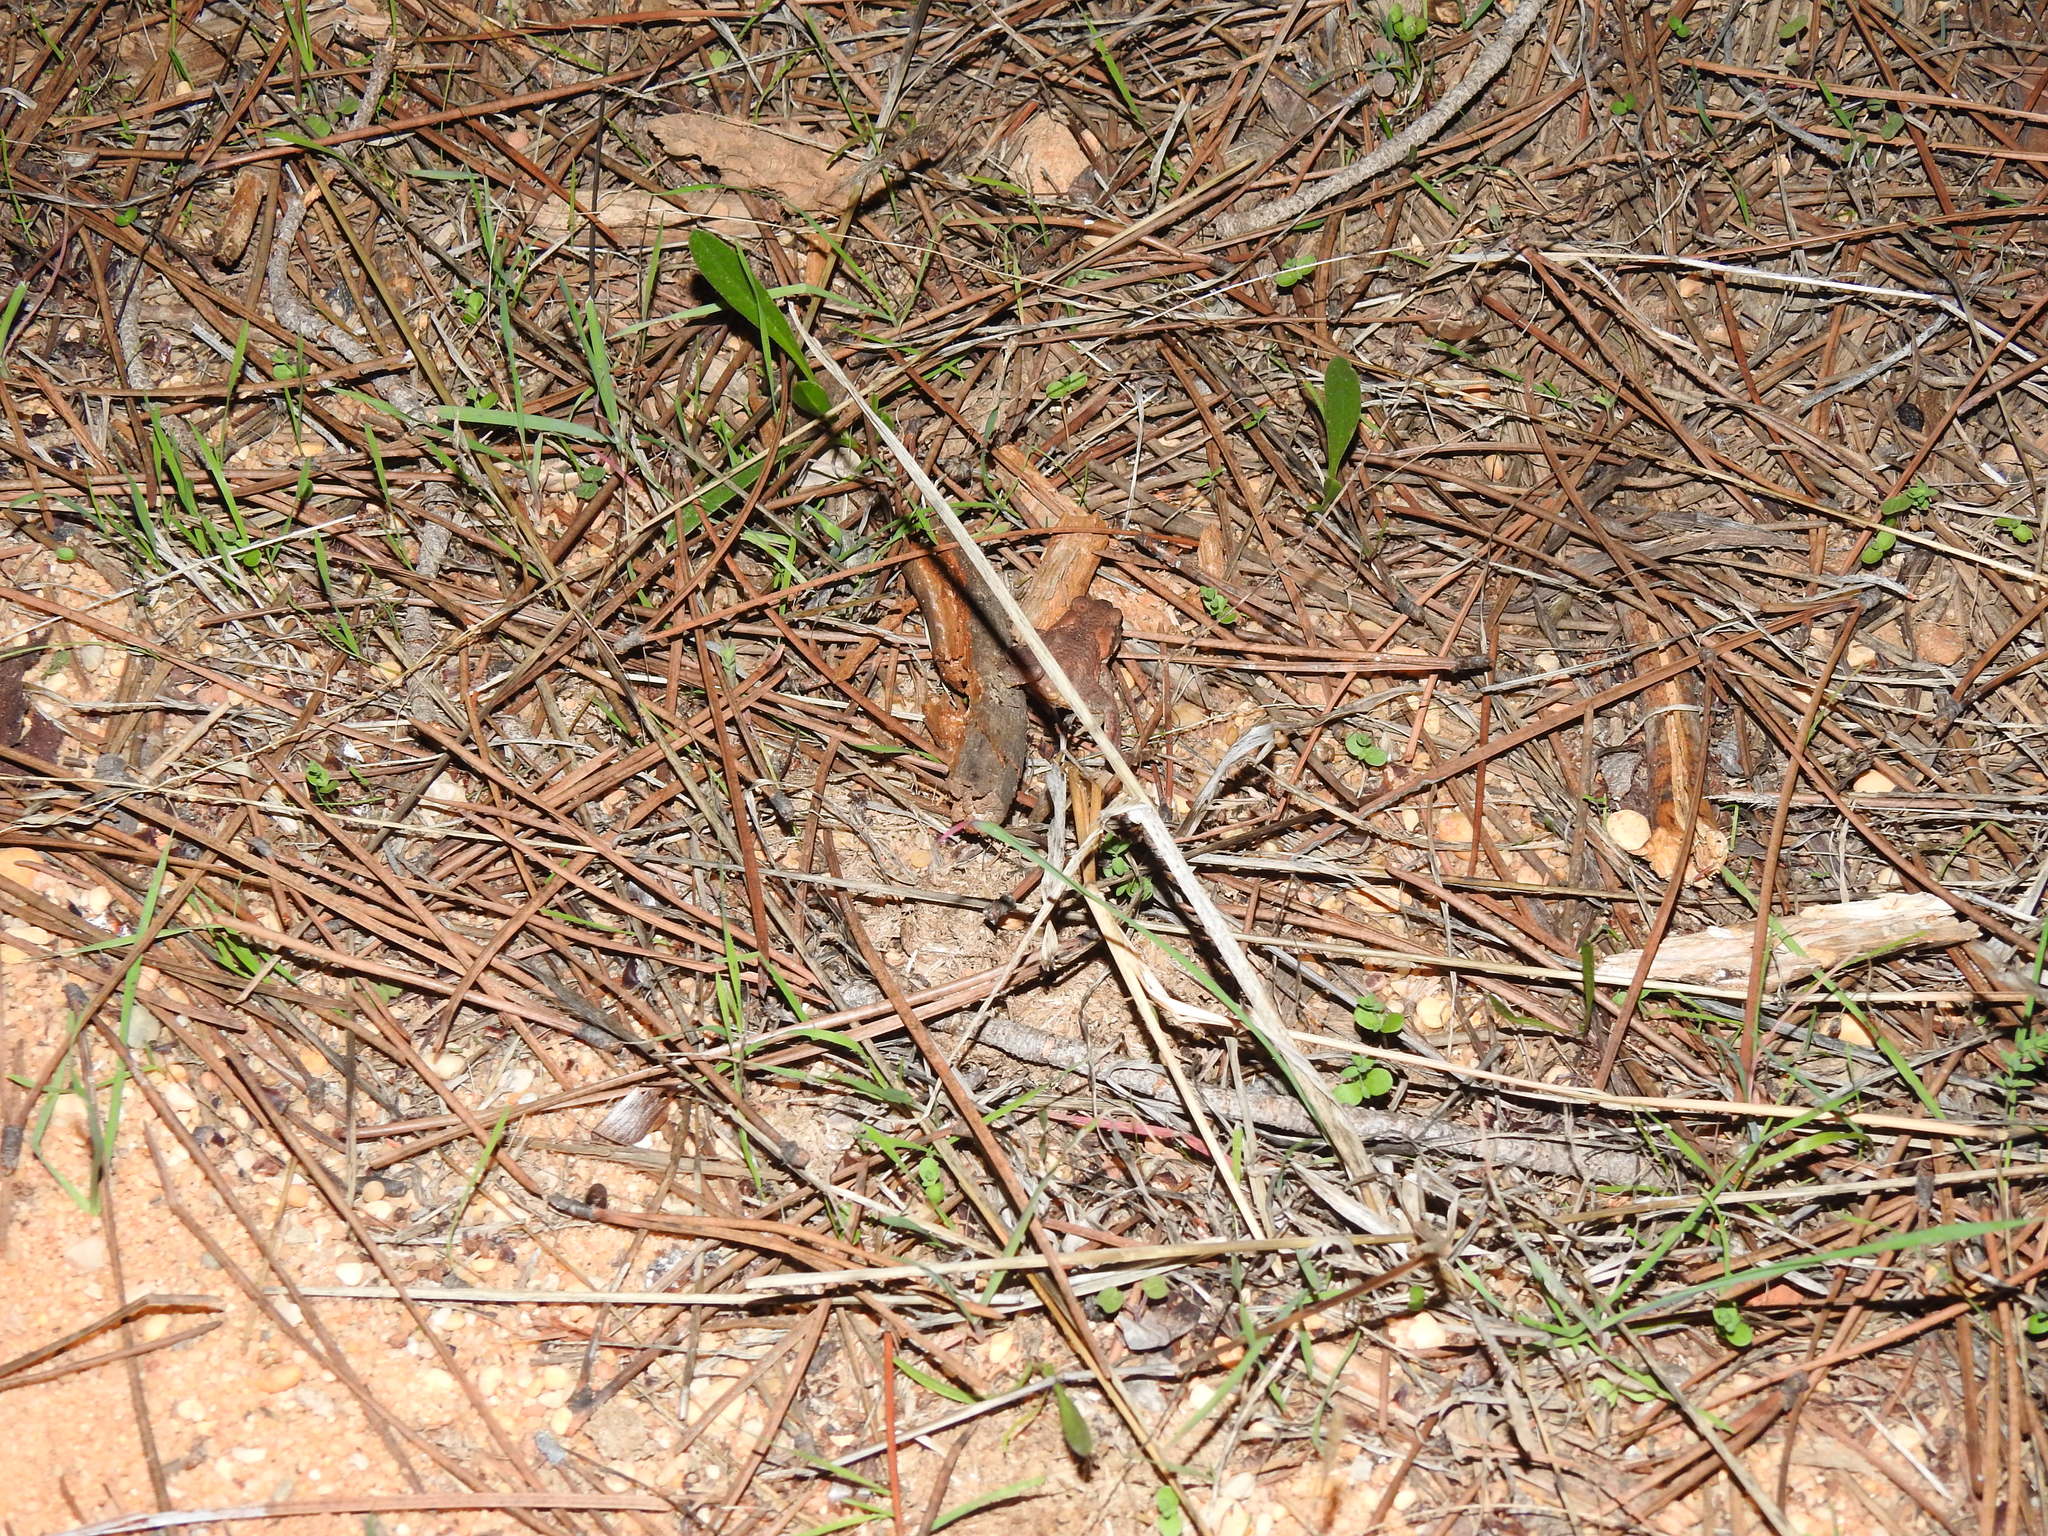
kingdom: Animalia
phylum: Chordata
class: Amphibia
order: Anura
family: Bufonidae
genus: Bufo
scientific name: Bufo spinosus
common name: Western common toad
